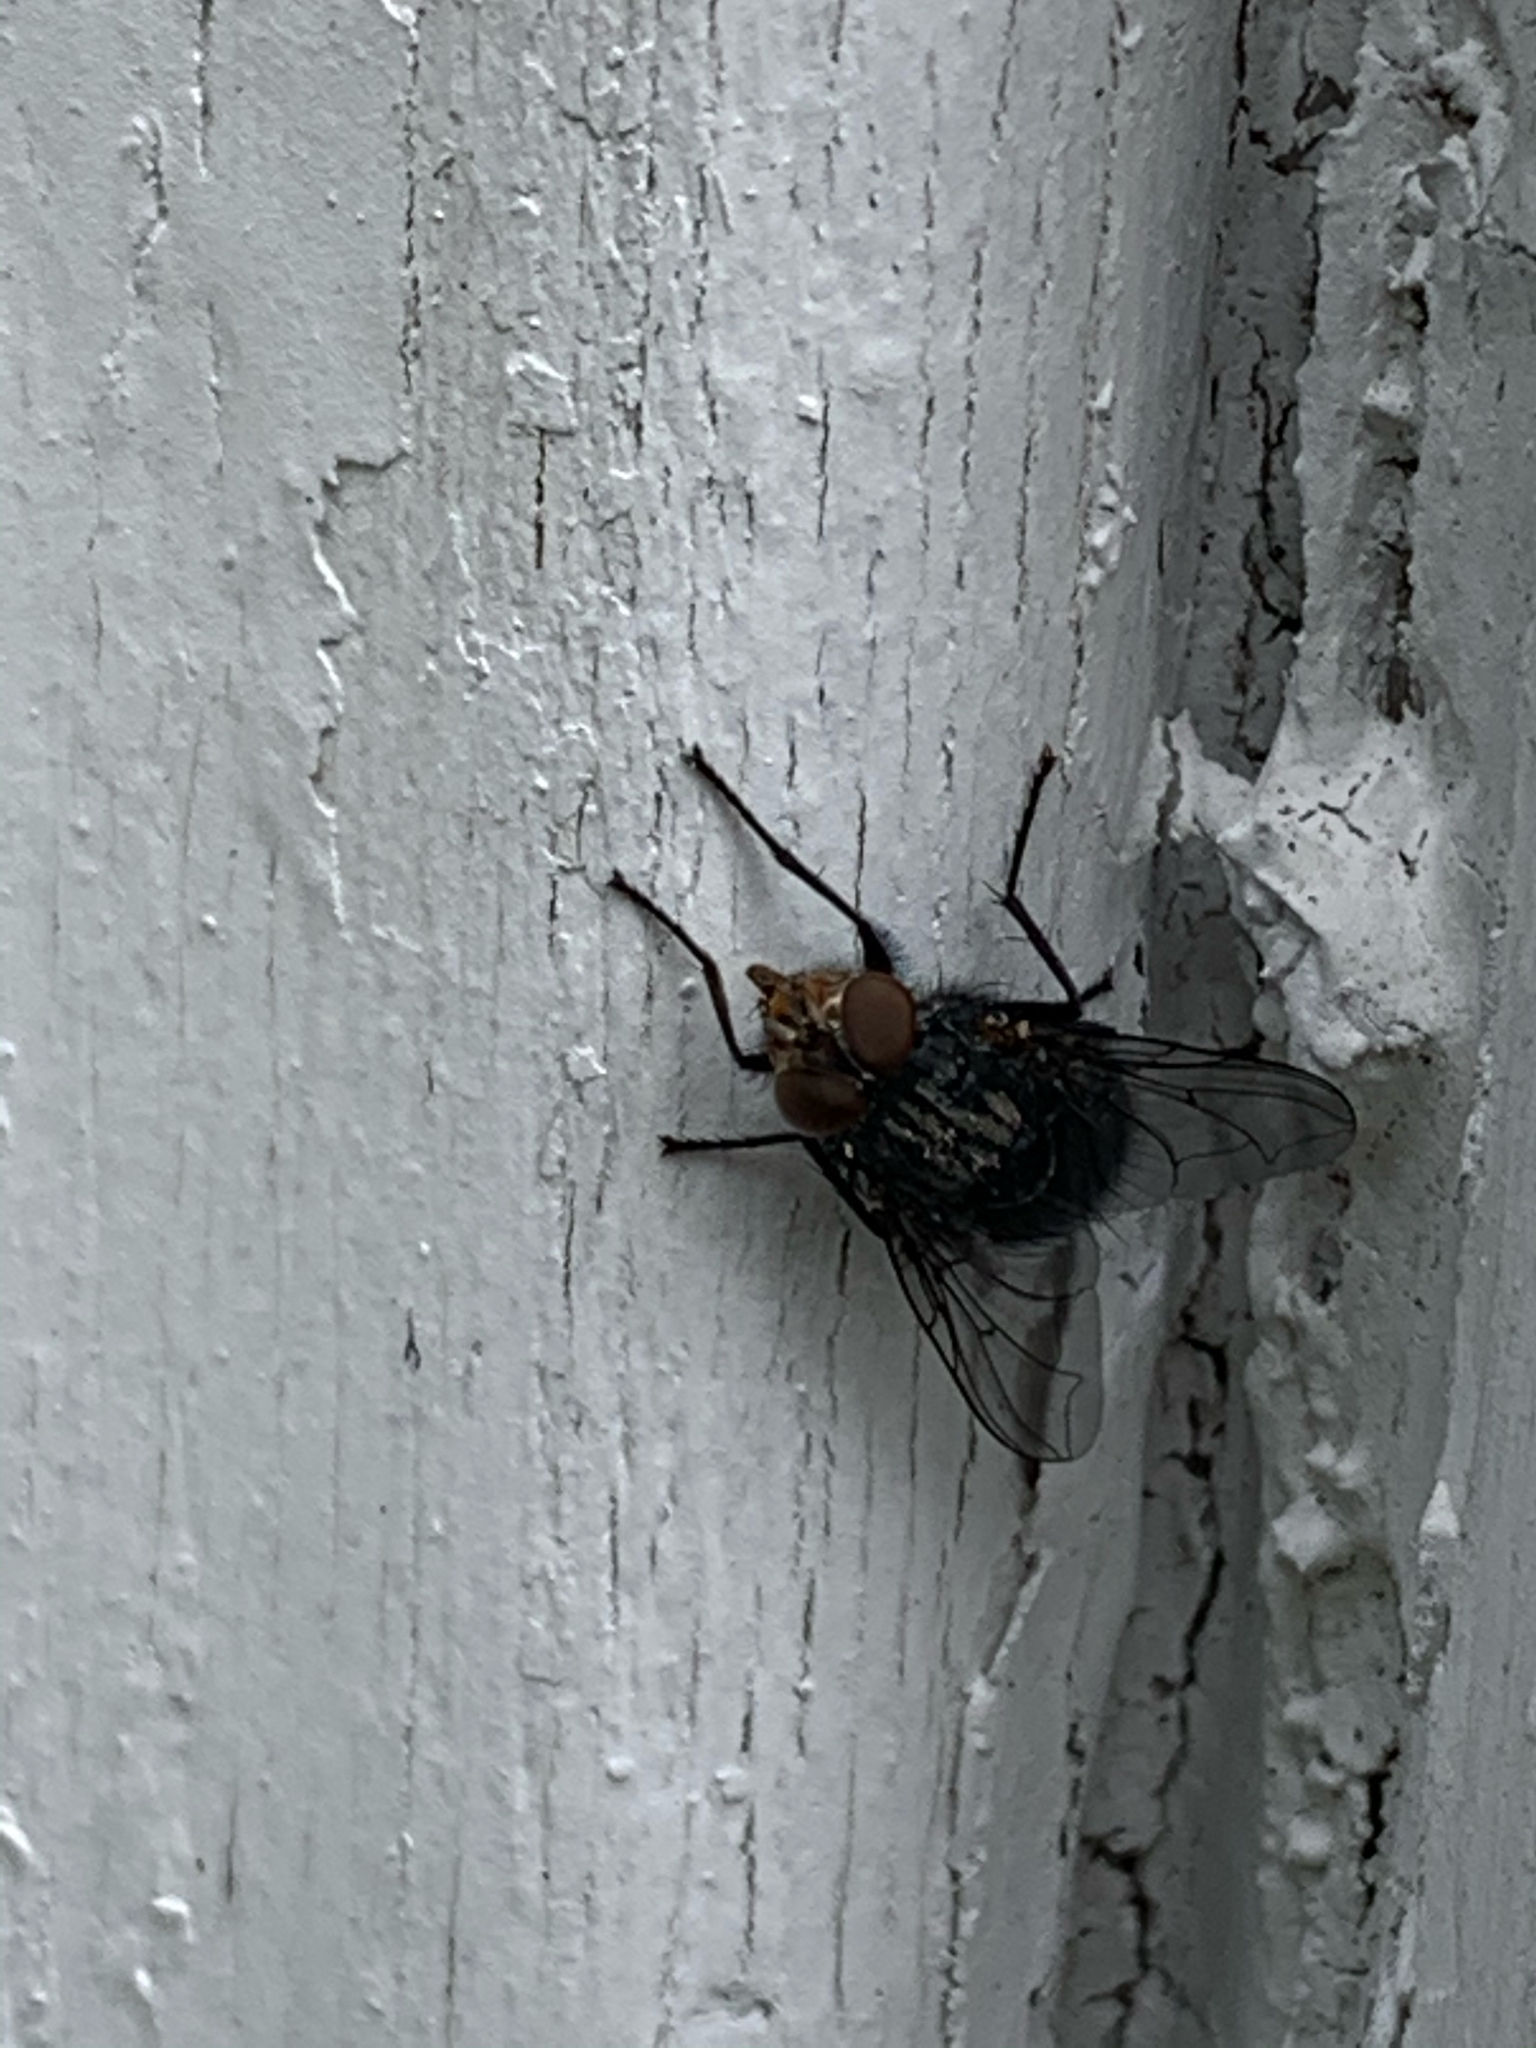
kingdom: Animalia
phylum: Arthropoda
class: Insecta
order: Diptera
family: Calliphoridae
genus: Calliphora
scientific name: Calliphora vicina
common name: Common blow flie
